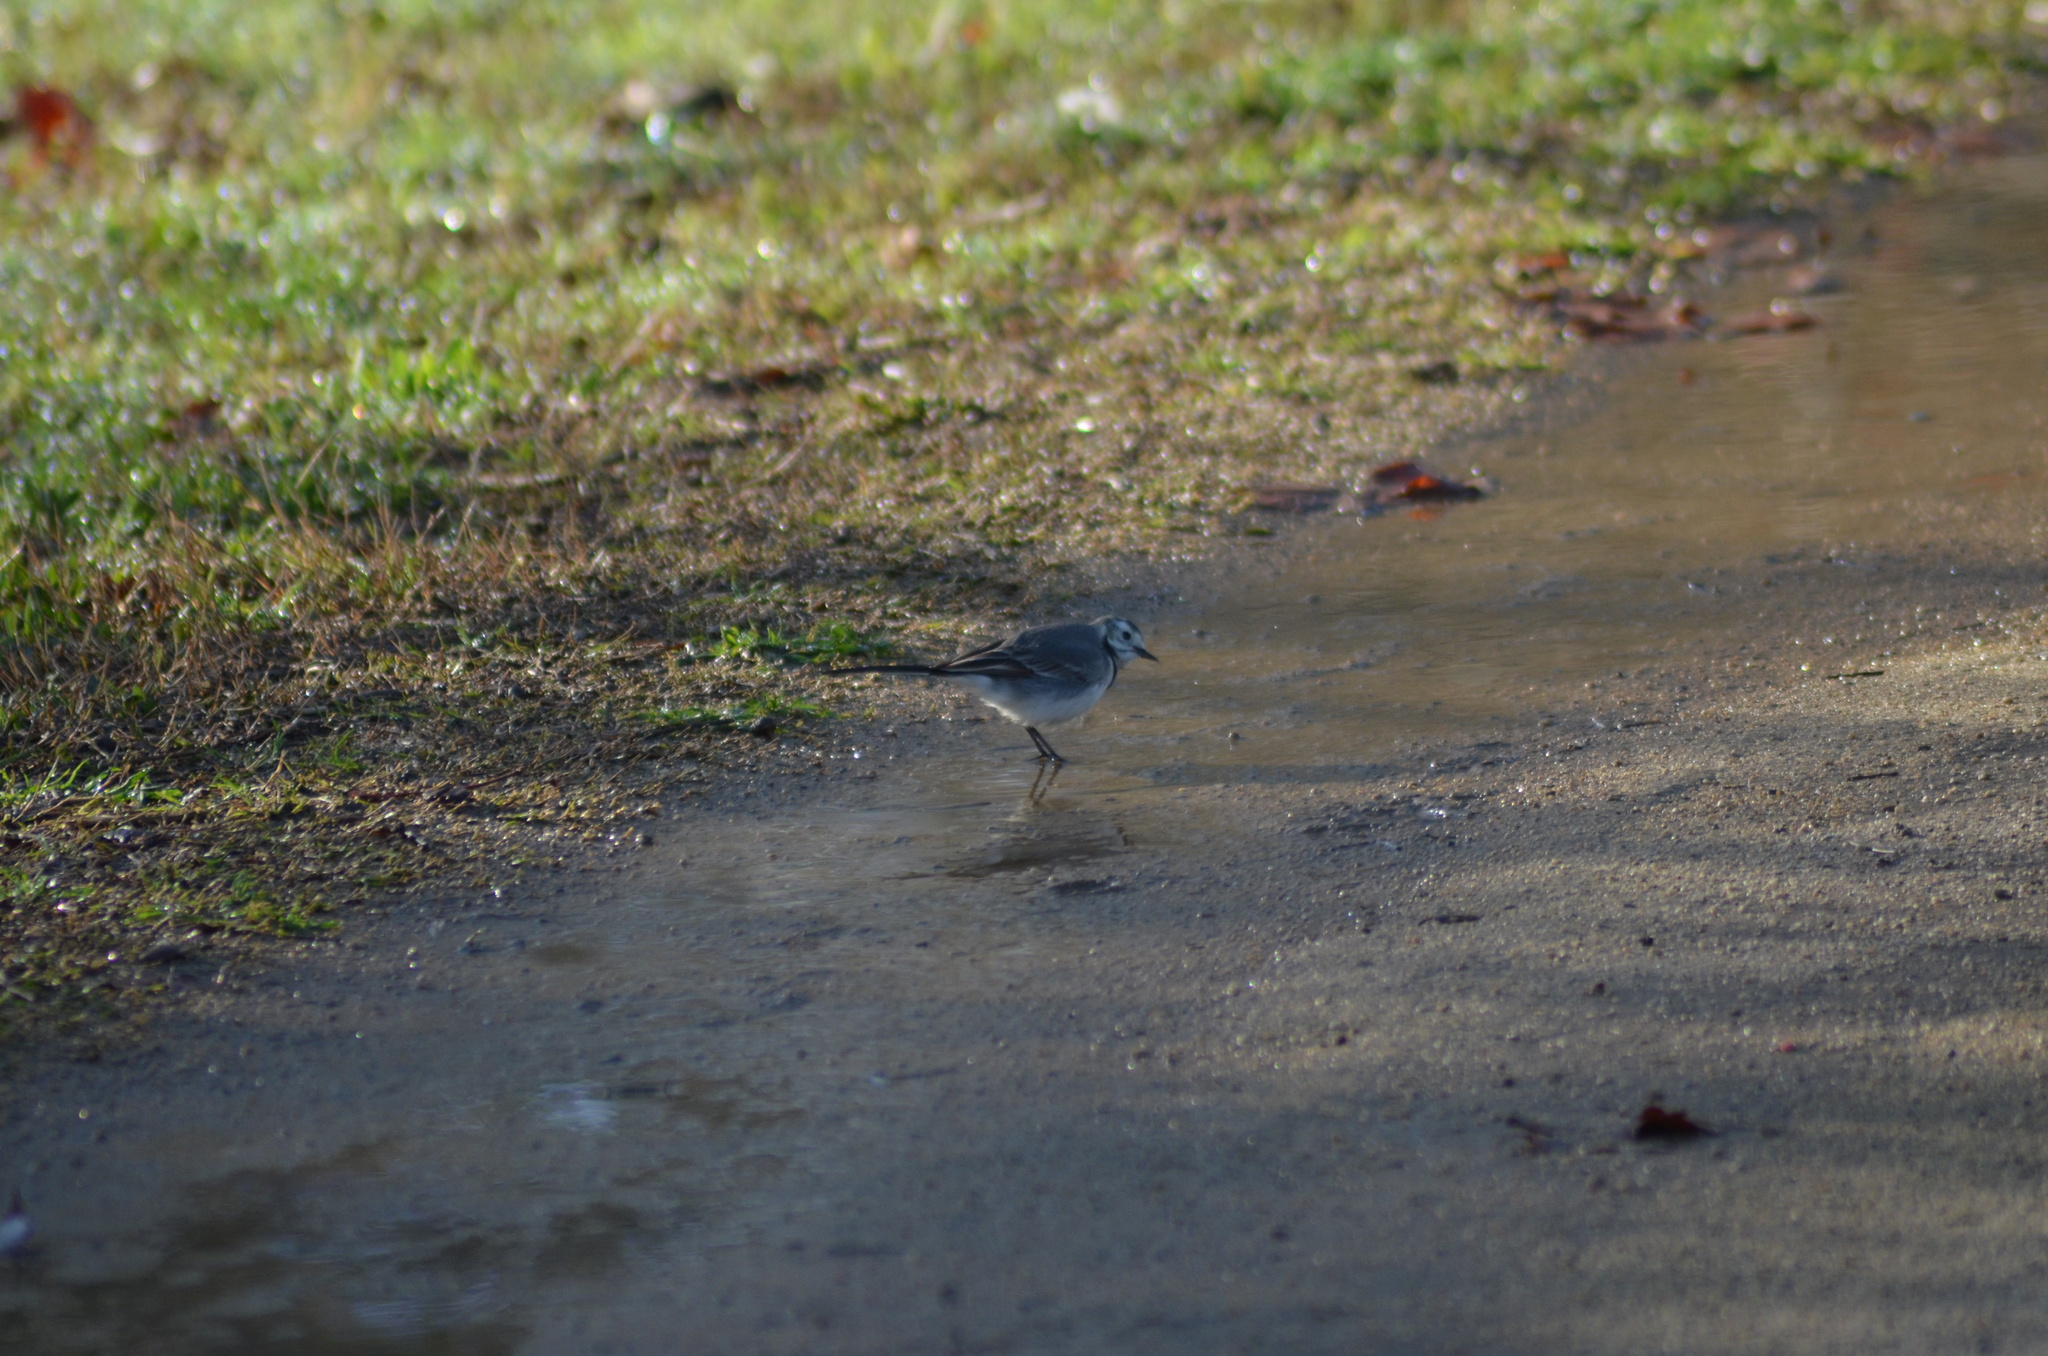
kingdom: Animalia
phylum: Chordata
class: Aves
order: Passeriformes
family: Motacillidae
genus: Motacilla
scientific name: Motacilla alba
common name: White wagtail
